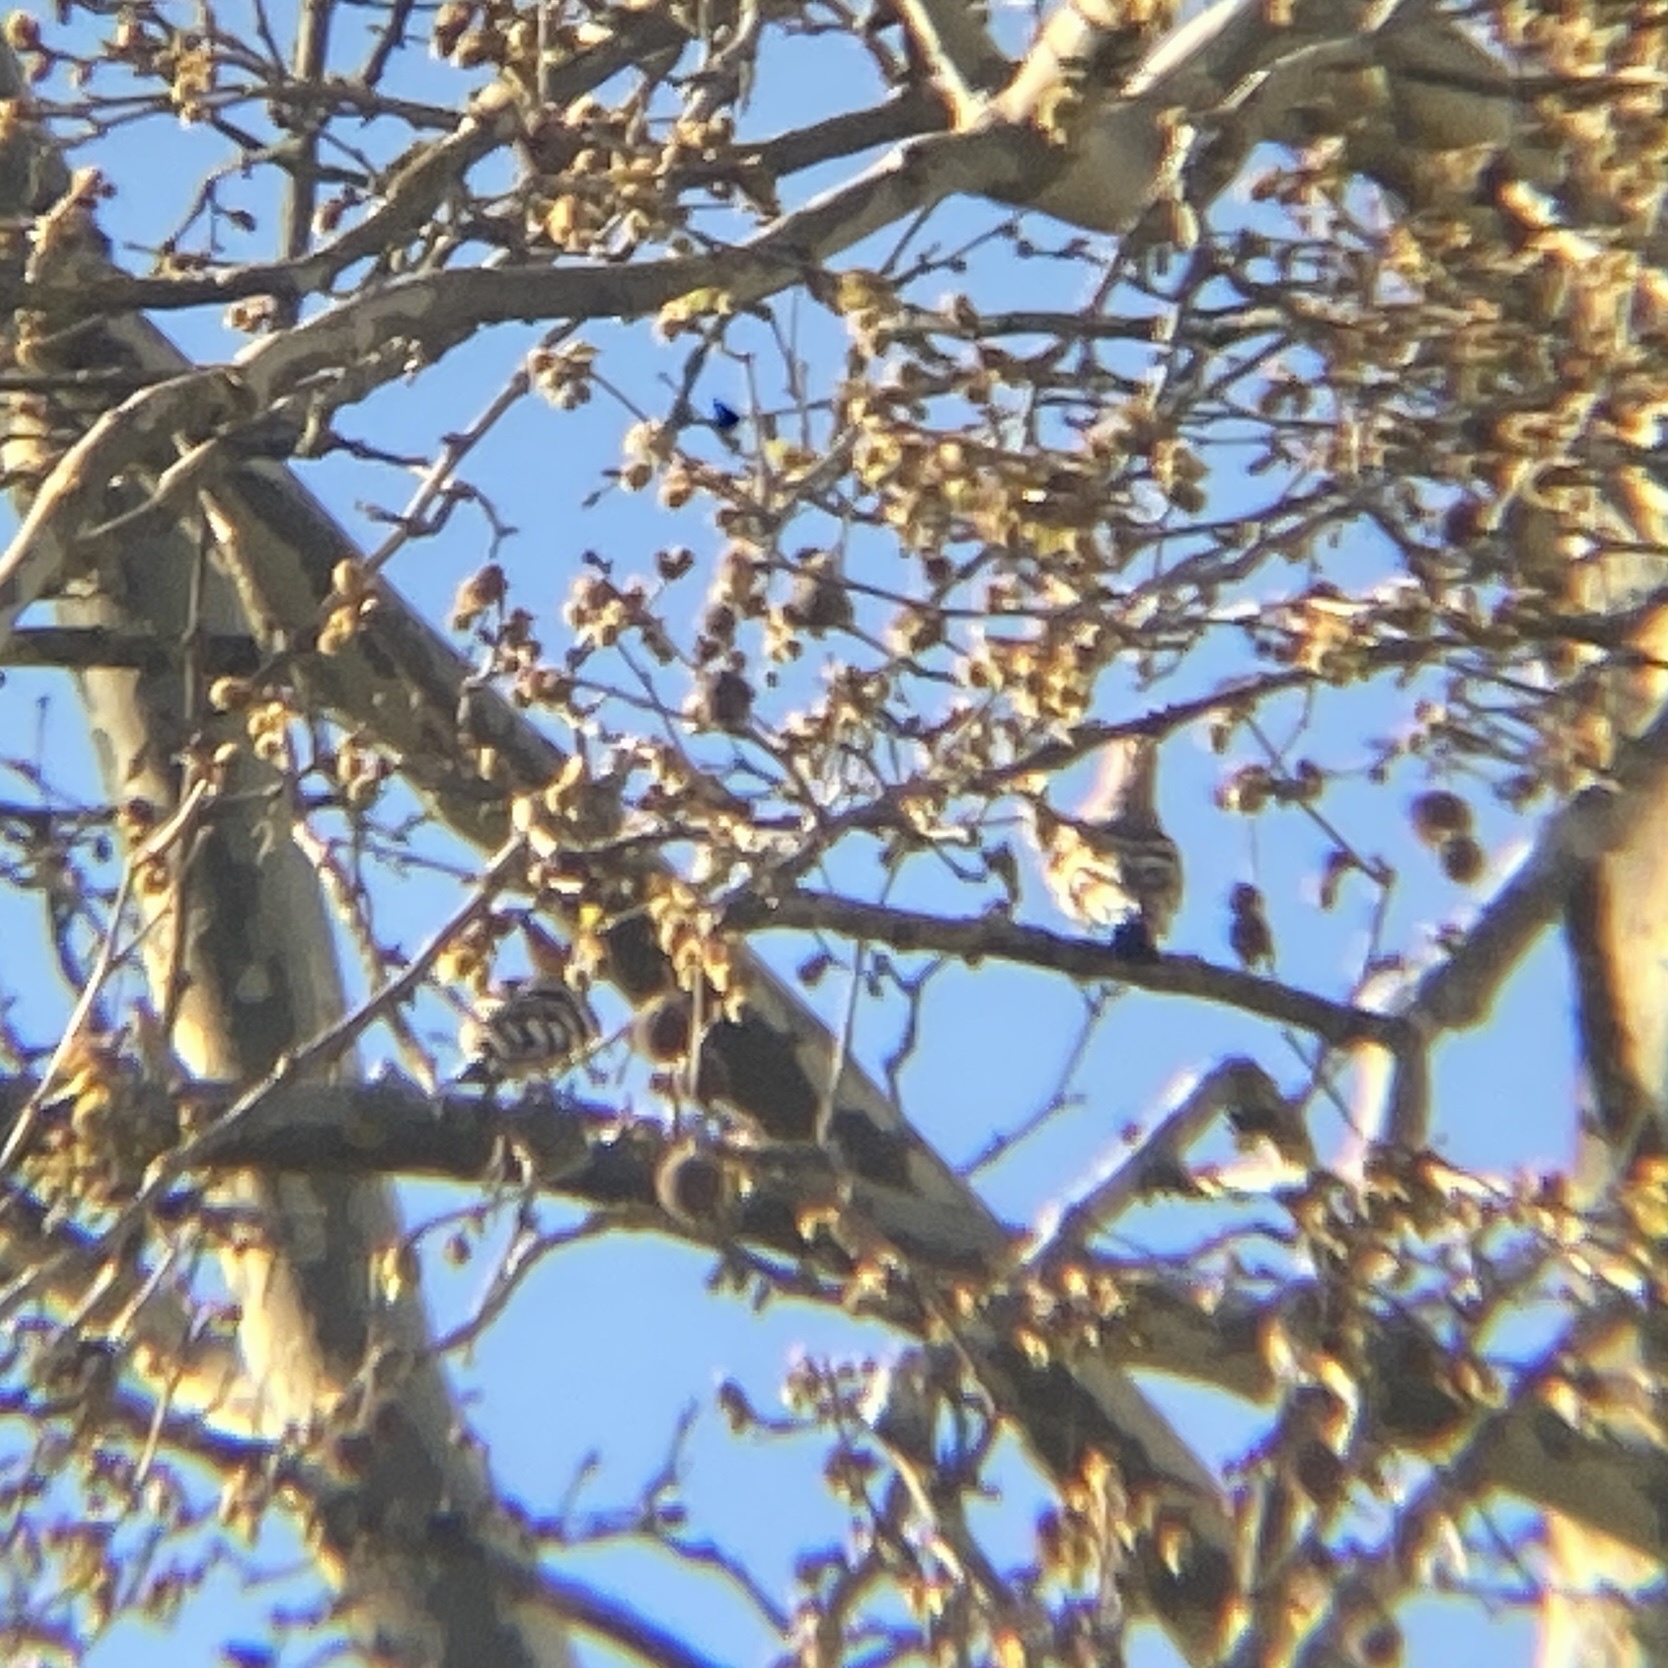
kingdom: Animalia
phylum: Chordata
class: Aves
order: Bucerotiformes
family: Upupidae
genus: Upupa
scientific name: Upupa epops
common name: Eurasian hoopoe
